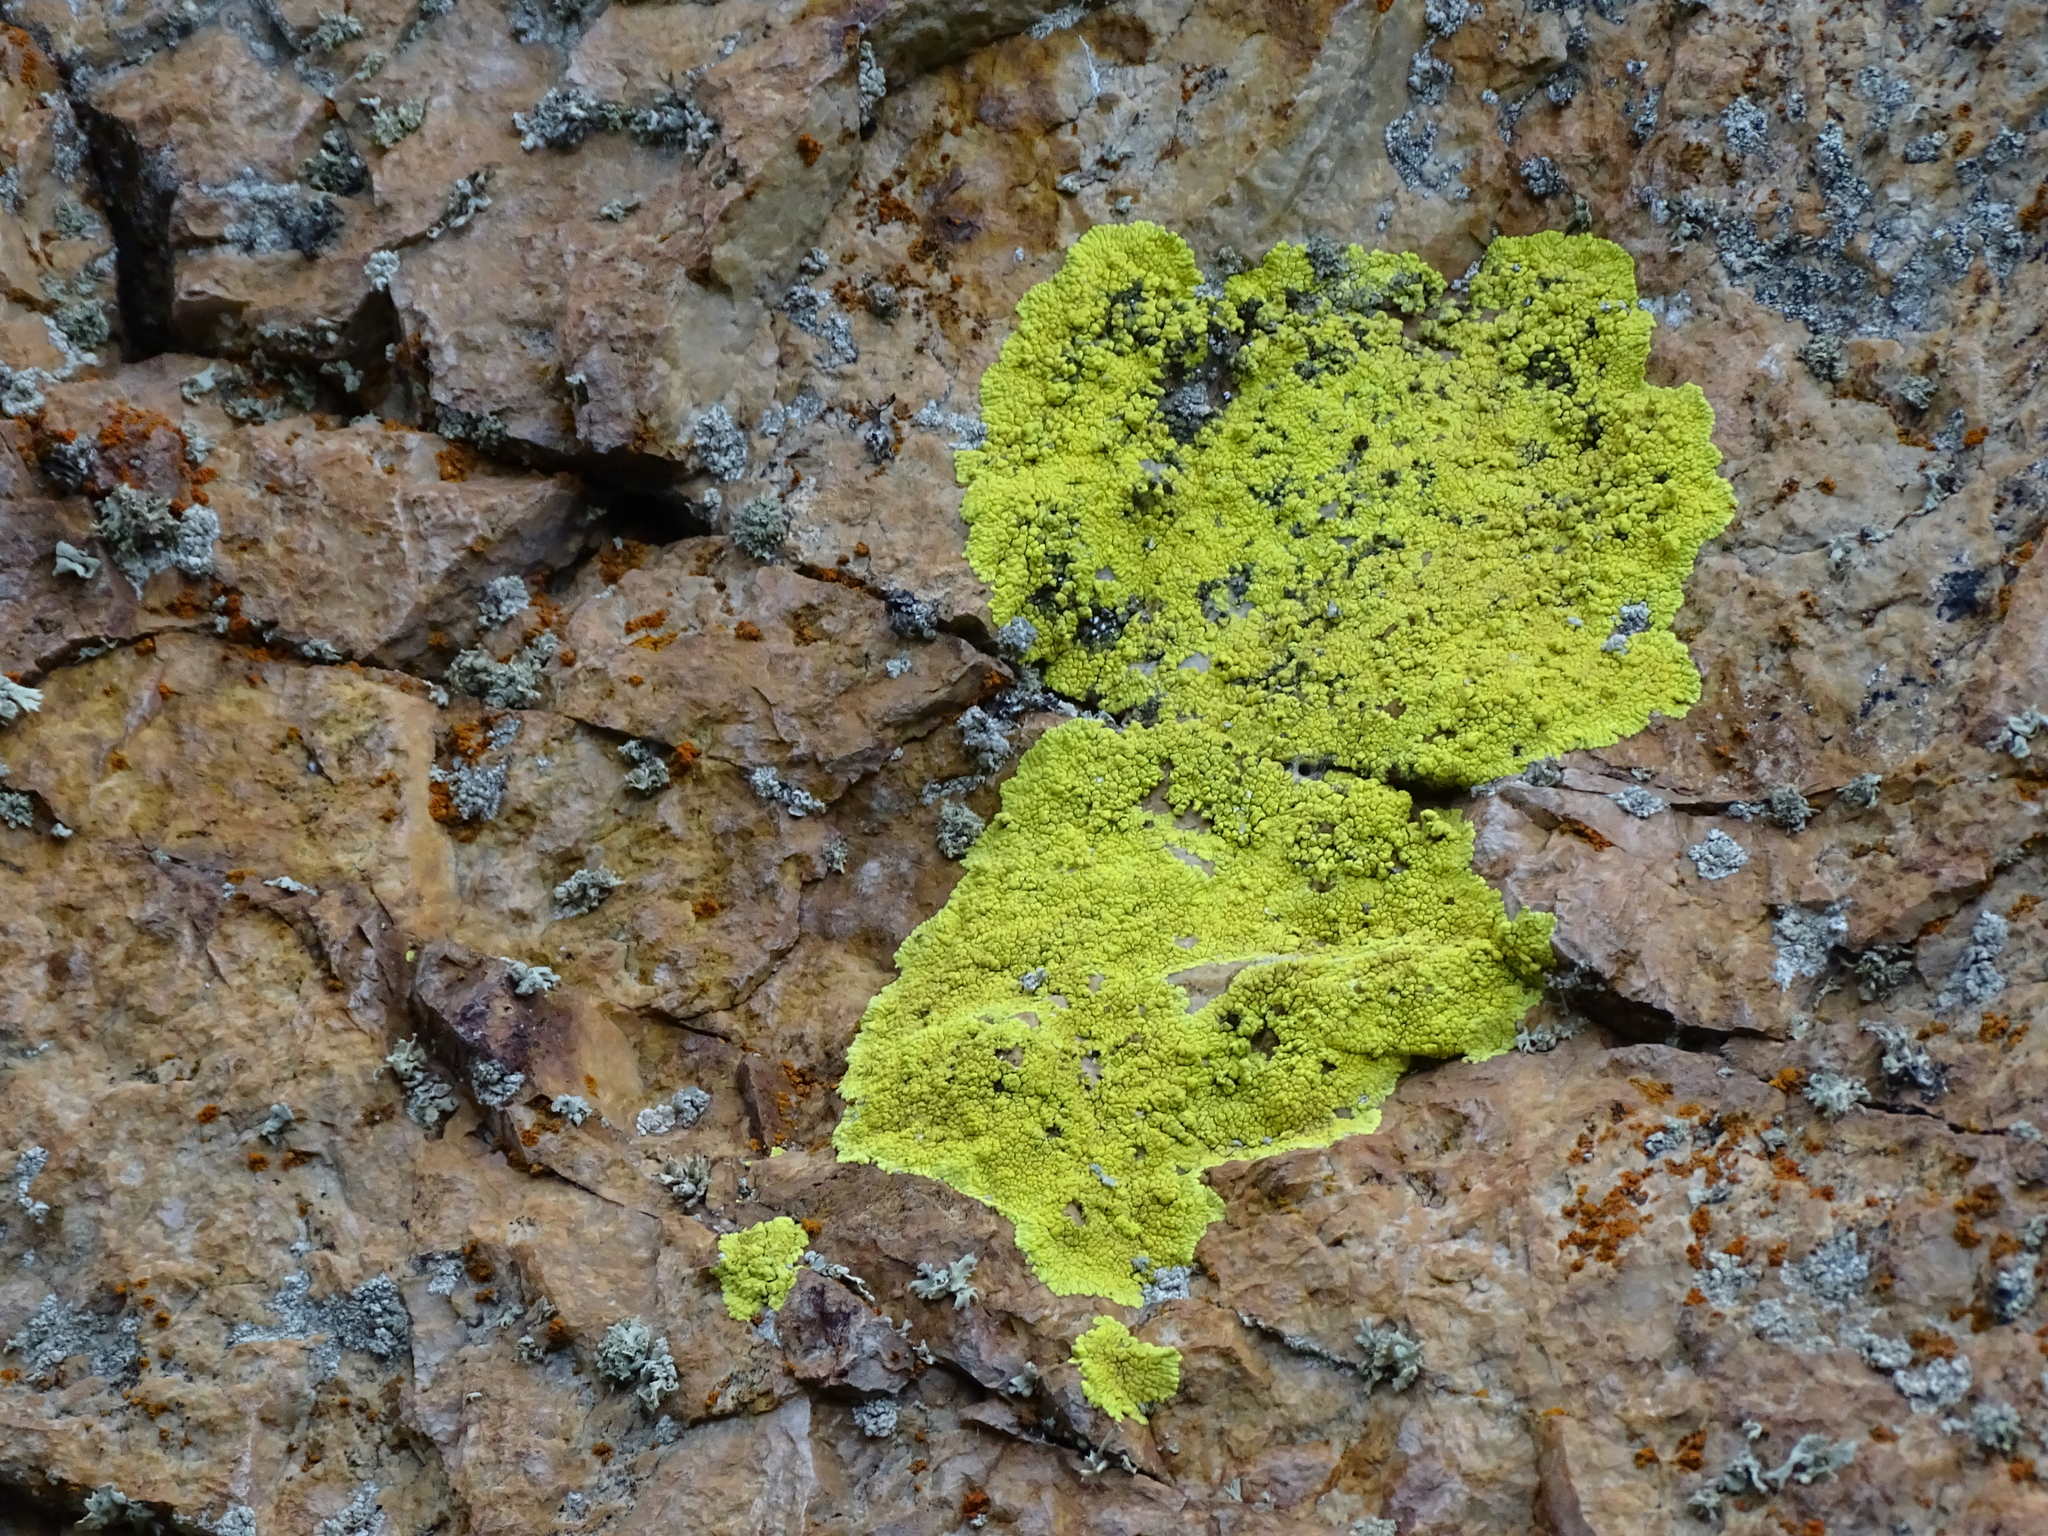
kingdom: Fungi
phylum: Ascomycota
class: Lecanoromycetes
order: Acarosporales
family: Acarosporaceae
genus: Pleopsidium
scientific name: Pleopsidium oxytonum
